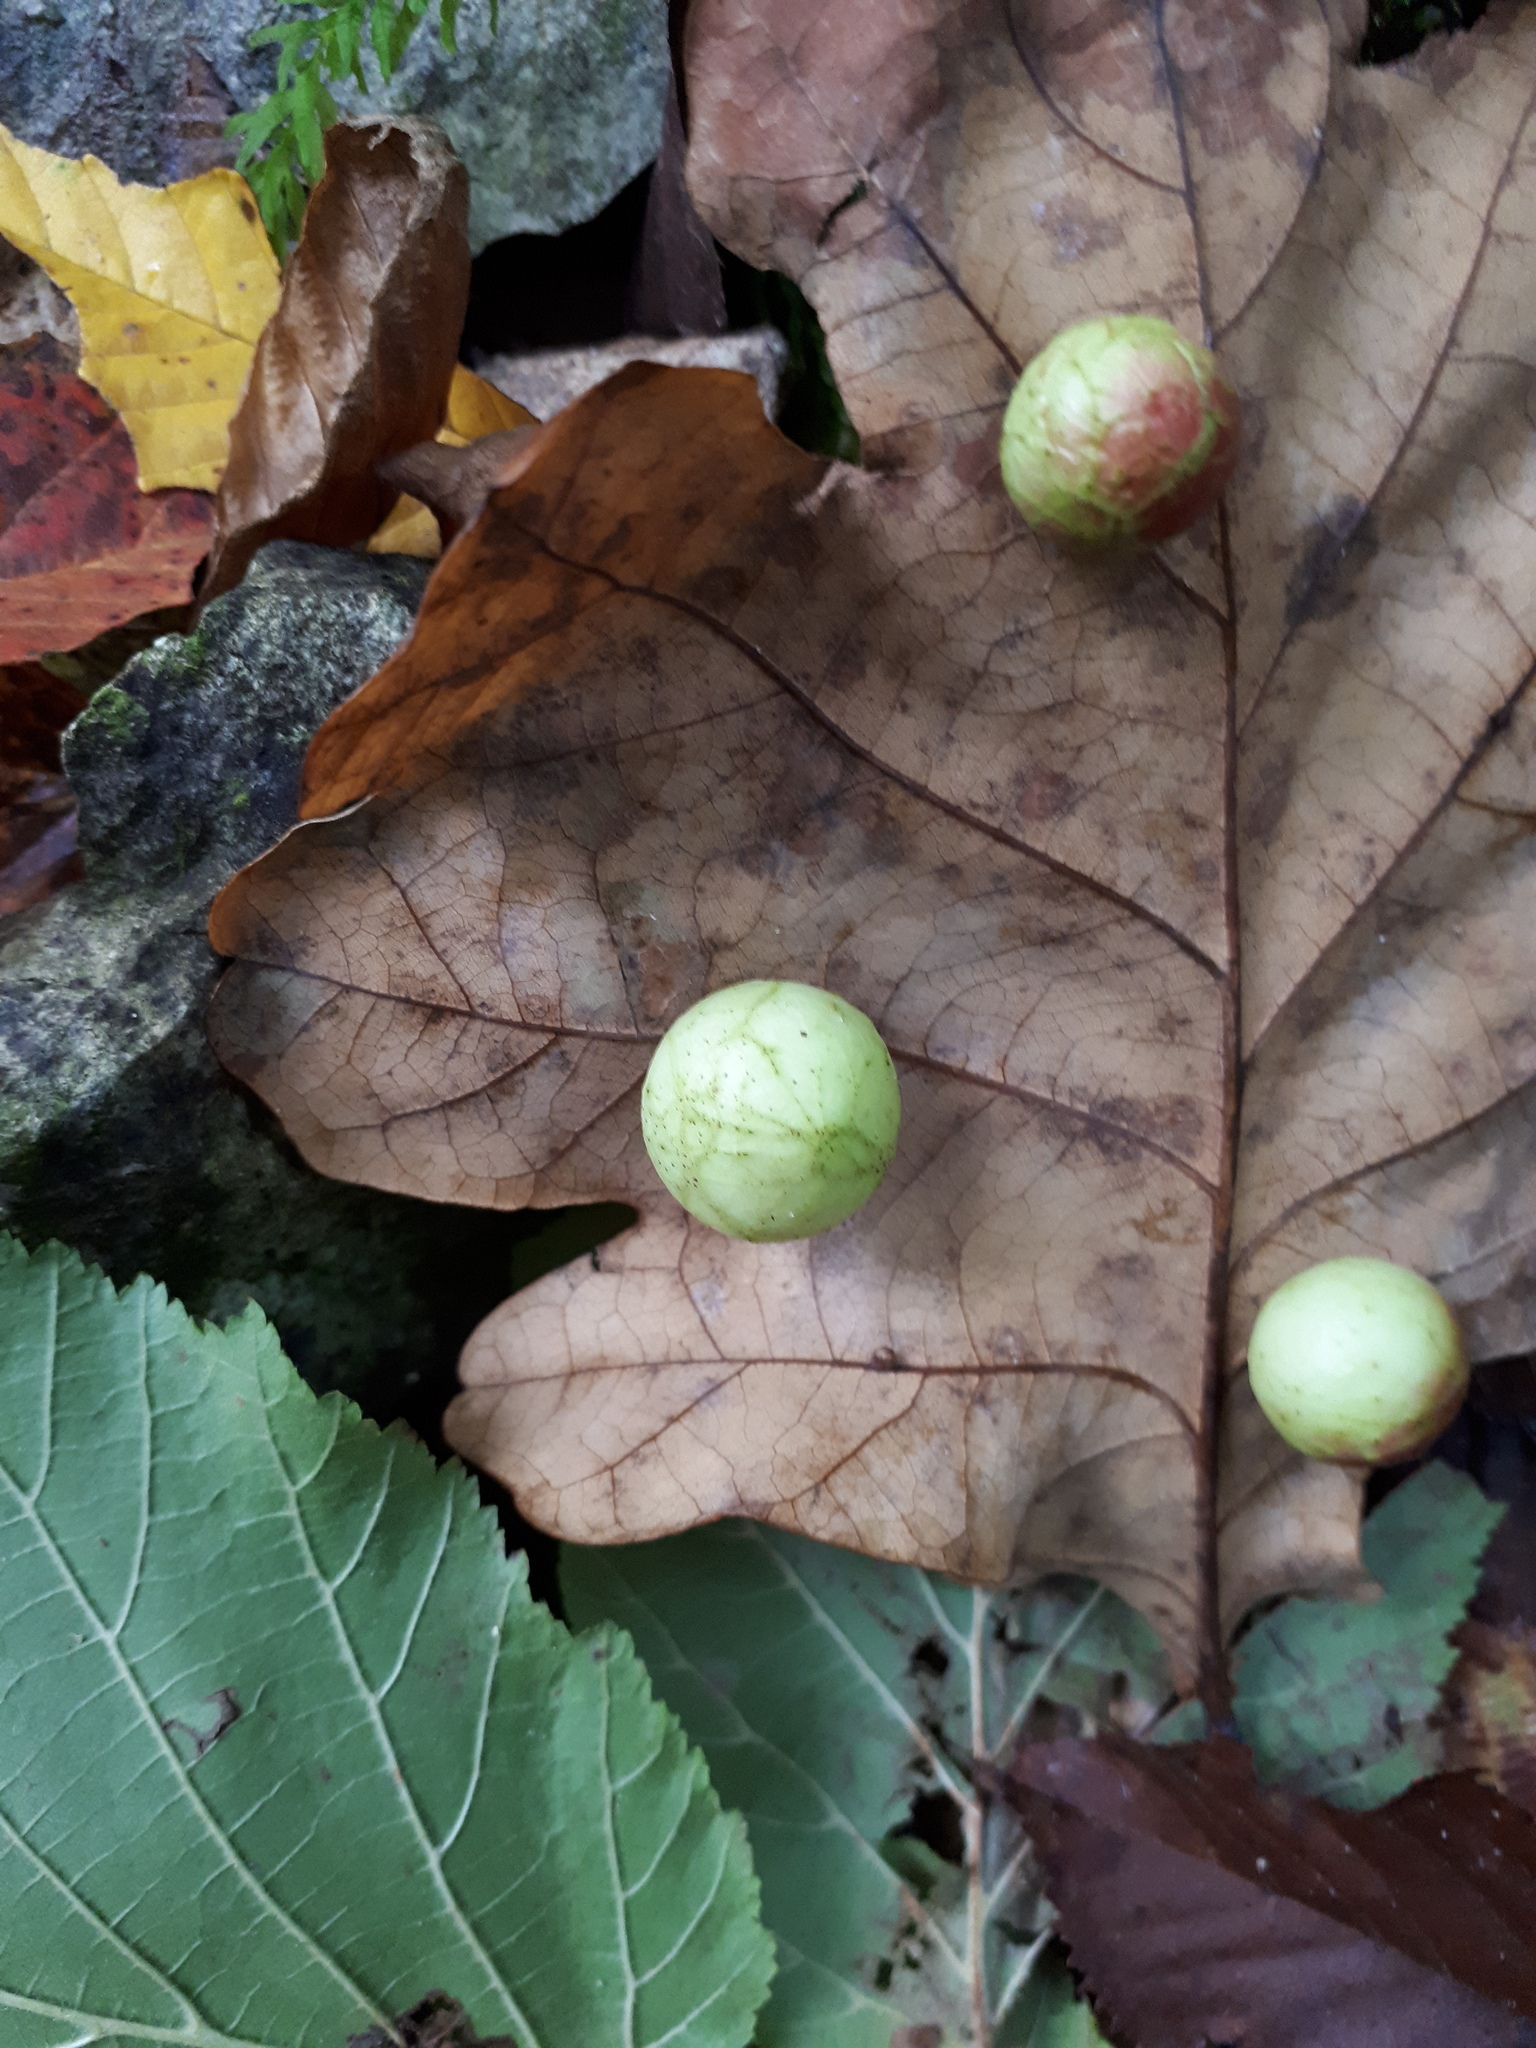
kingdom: Animalia
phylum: Arthropoda
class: Insecta
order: Hymenoptera
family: Cynipidae
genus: Cynips
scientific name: Cynips quercusfolii
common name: Cherry gall
